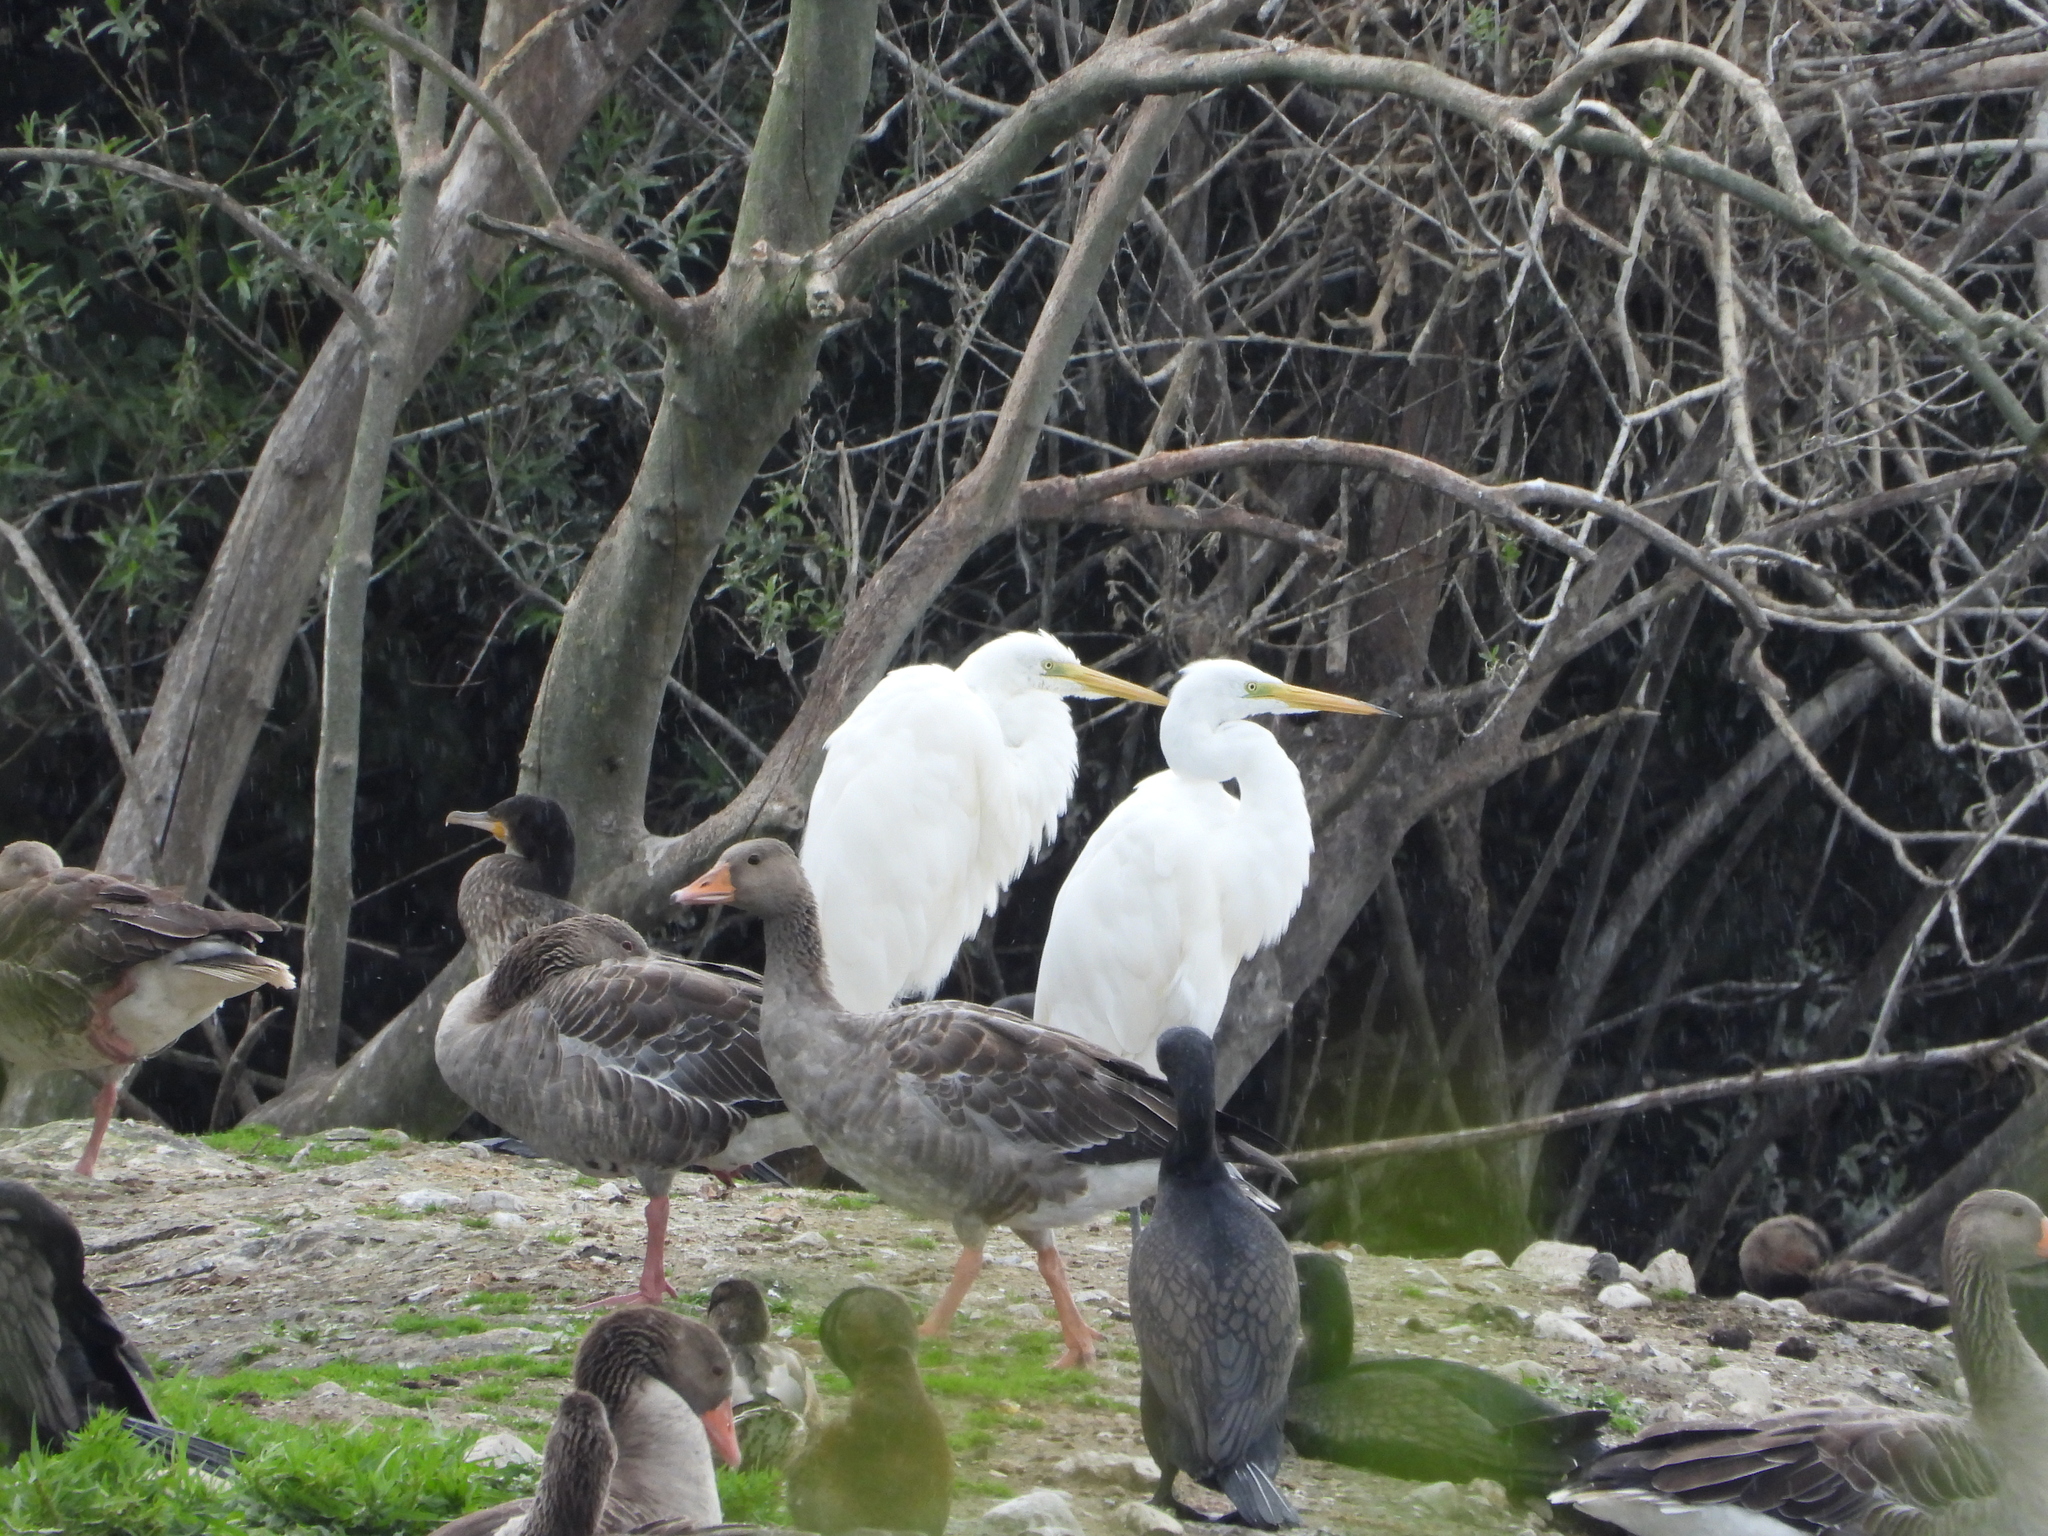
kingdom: Animalia
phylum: Chordata
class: Aves
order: Pelecaniformes
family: Ardeidae
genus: Ardea
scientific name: Ardea alba
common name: Great egret
